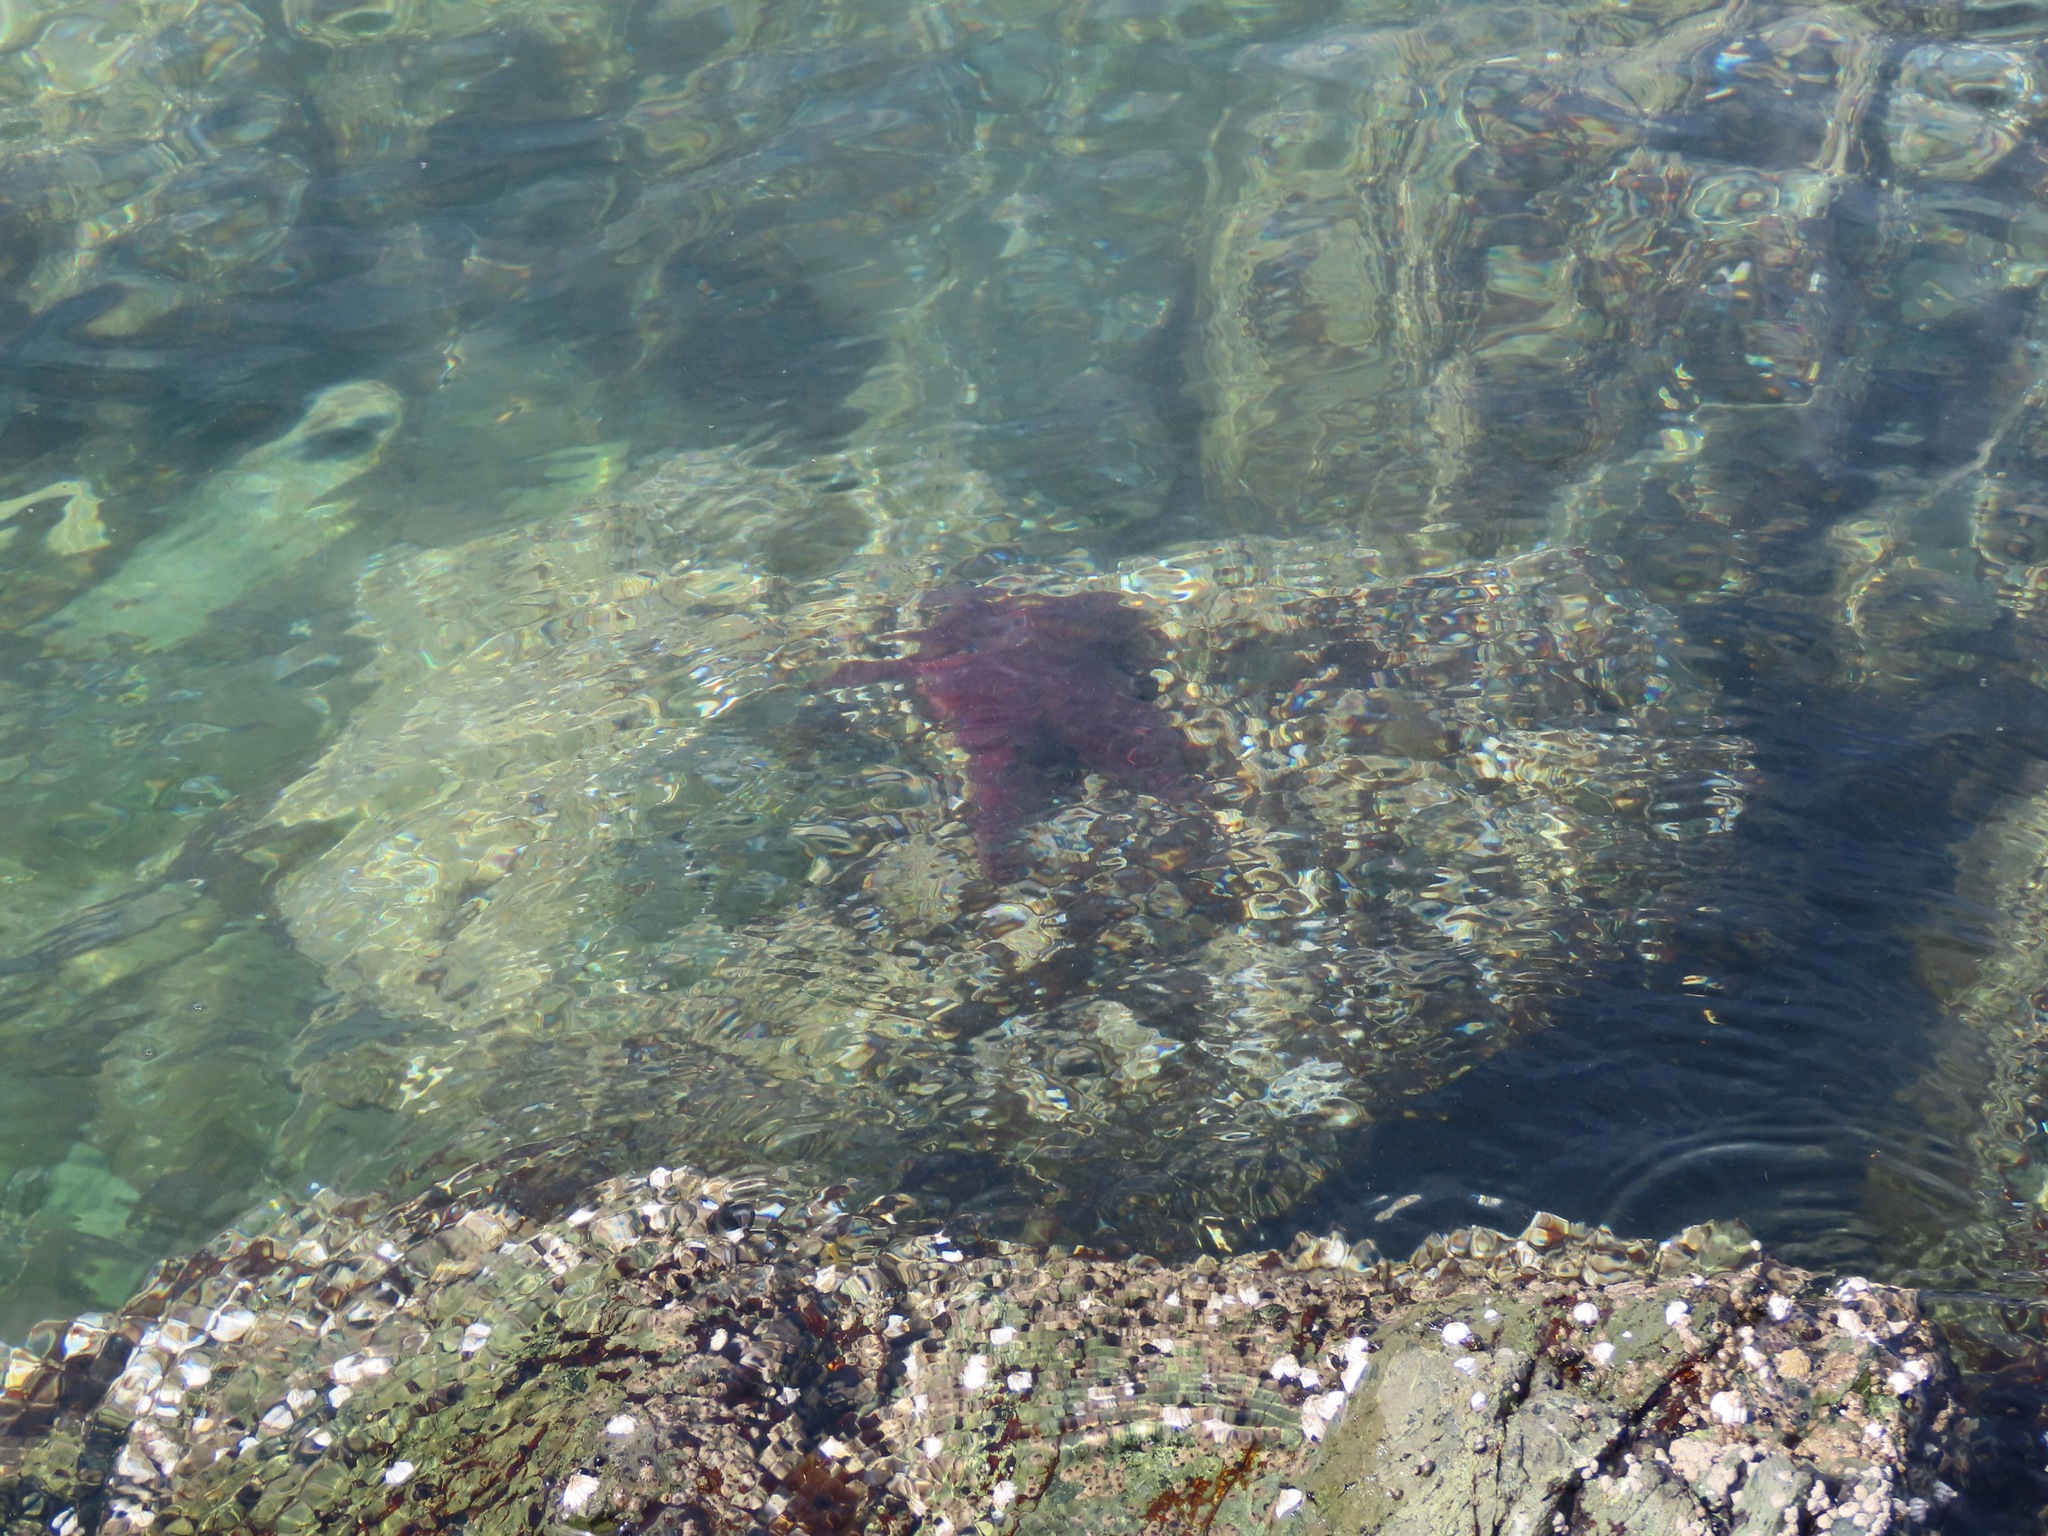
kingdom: Animalia
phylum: Echinodermata
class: Asteroidea
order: Forcipulatida
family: Asteriidae
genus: Pisaster
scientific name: Pisaster ochraceus
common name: Ochre stars
